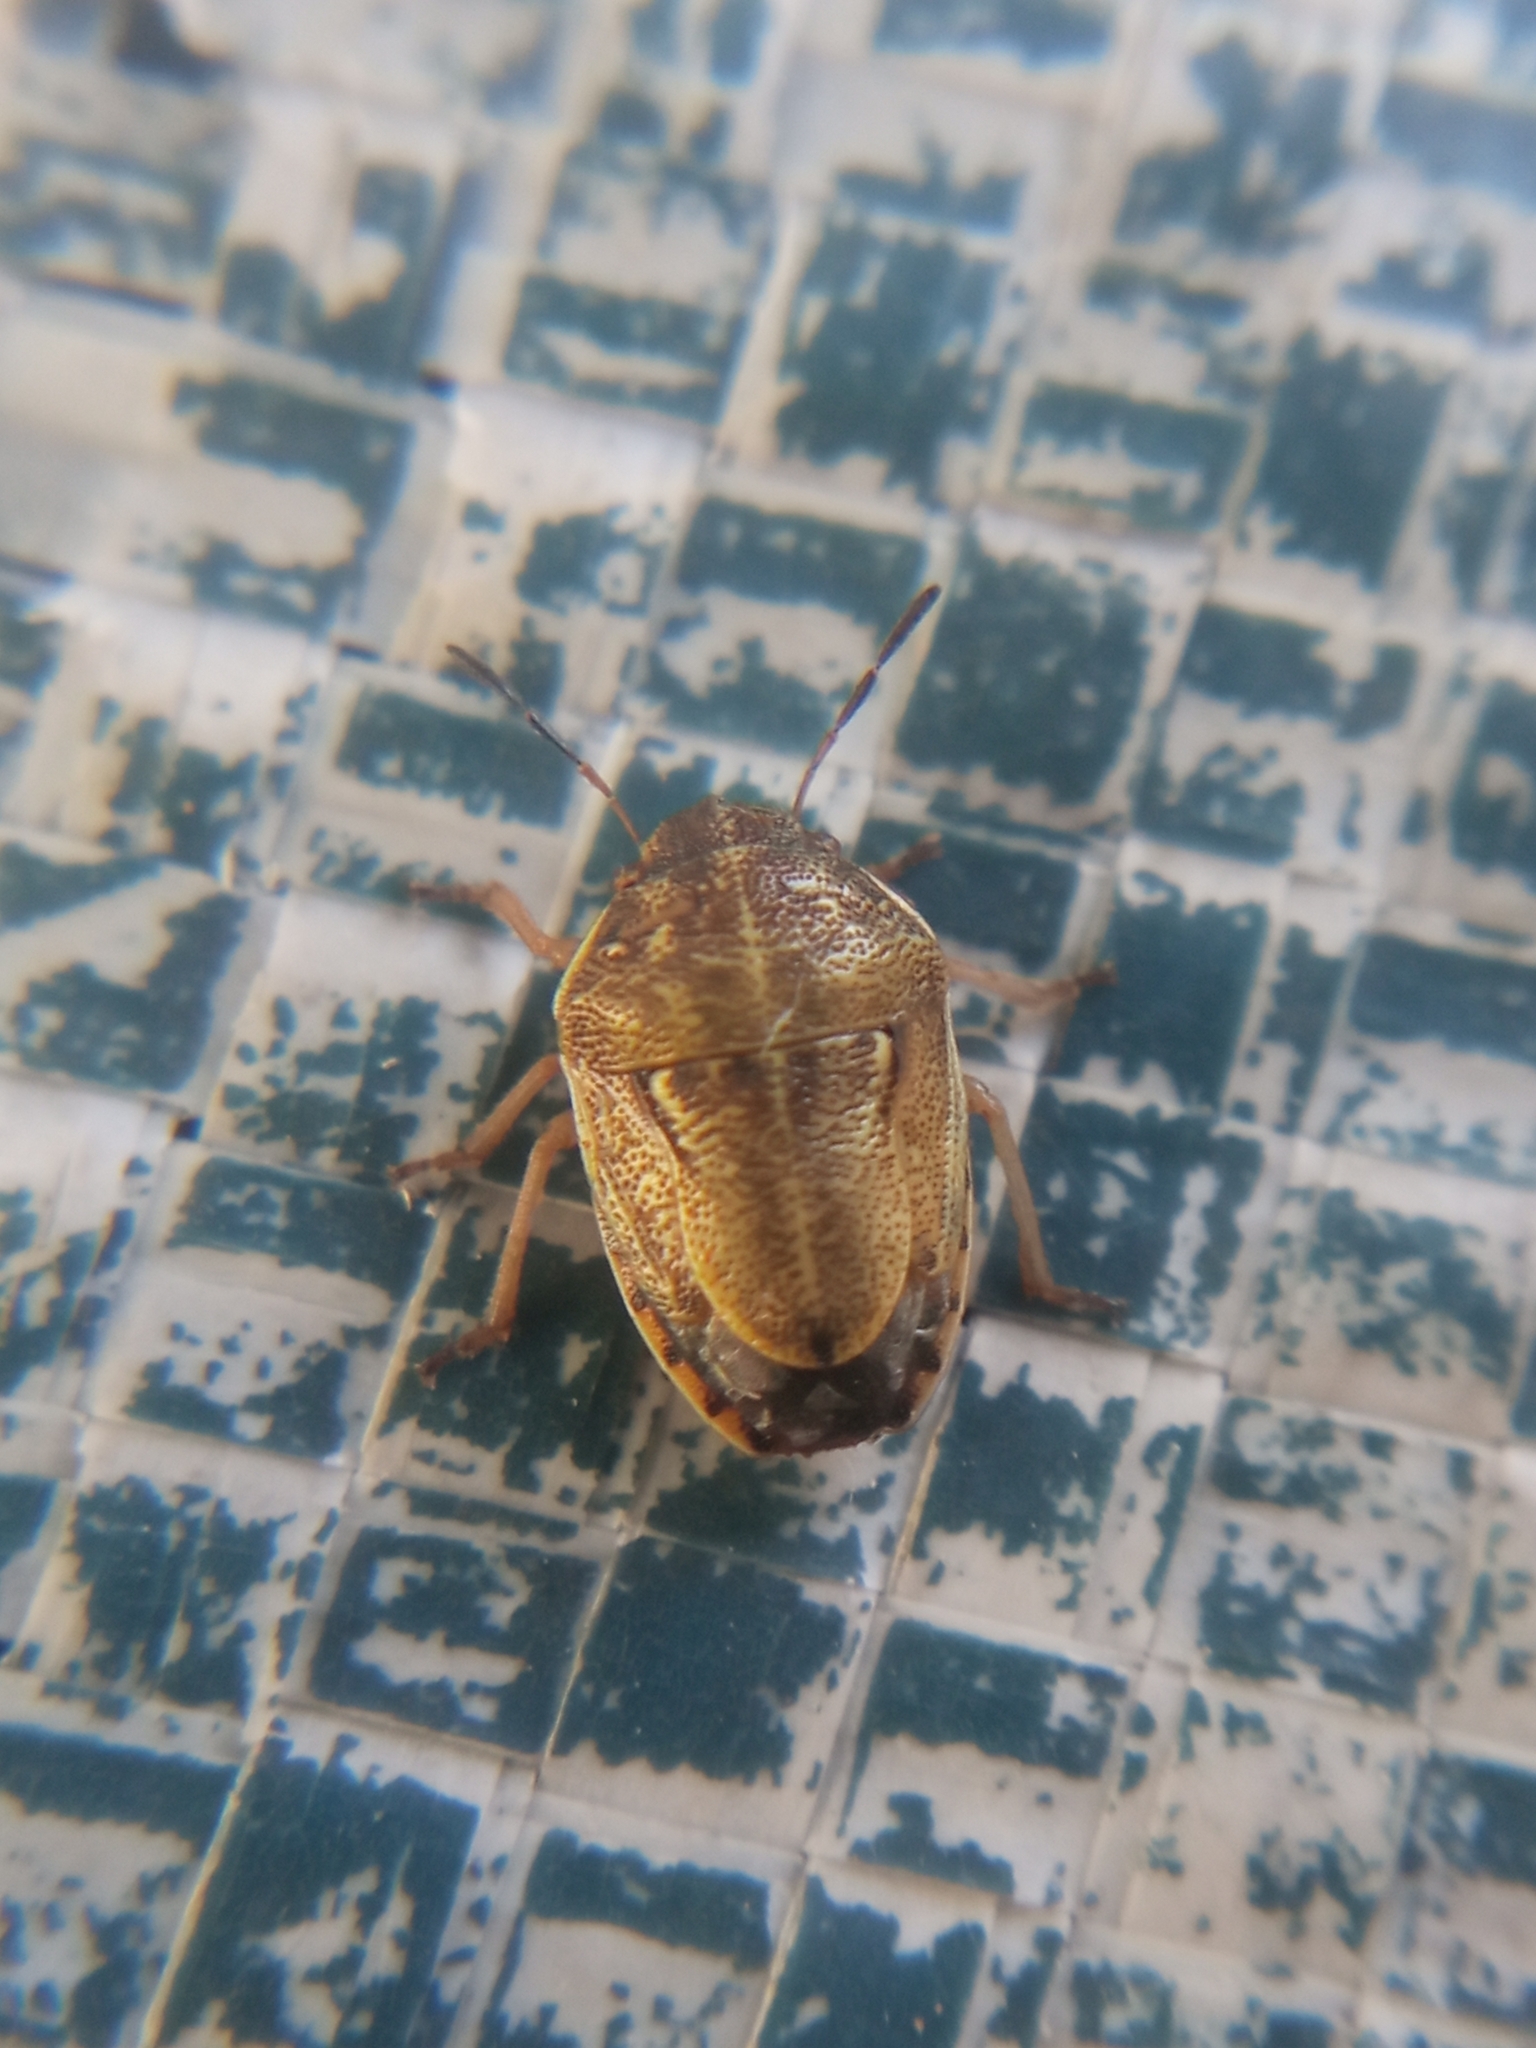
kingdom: Animalia
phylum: Arthropoda
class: Insecta
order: Hemiptera
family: Pentatomidae
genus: Neottiglossa
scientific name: Neottiglossa leporina
